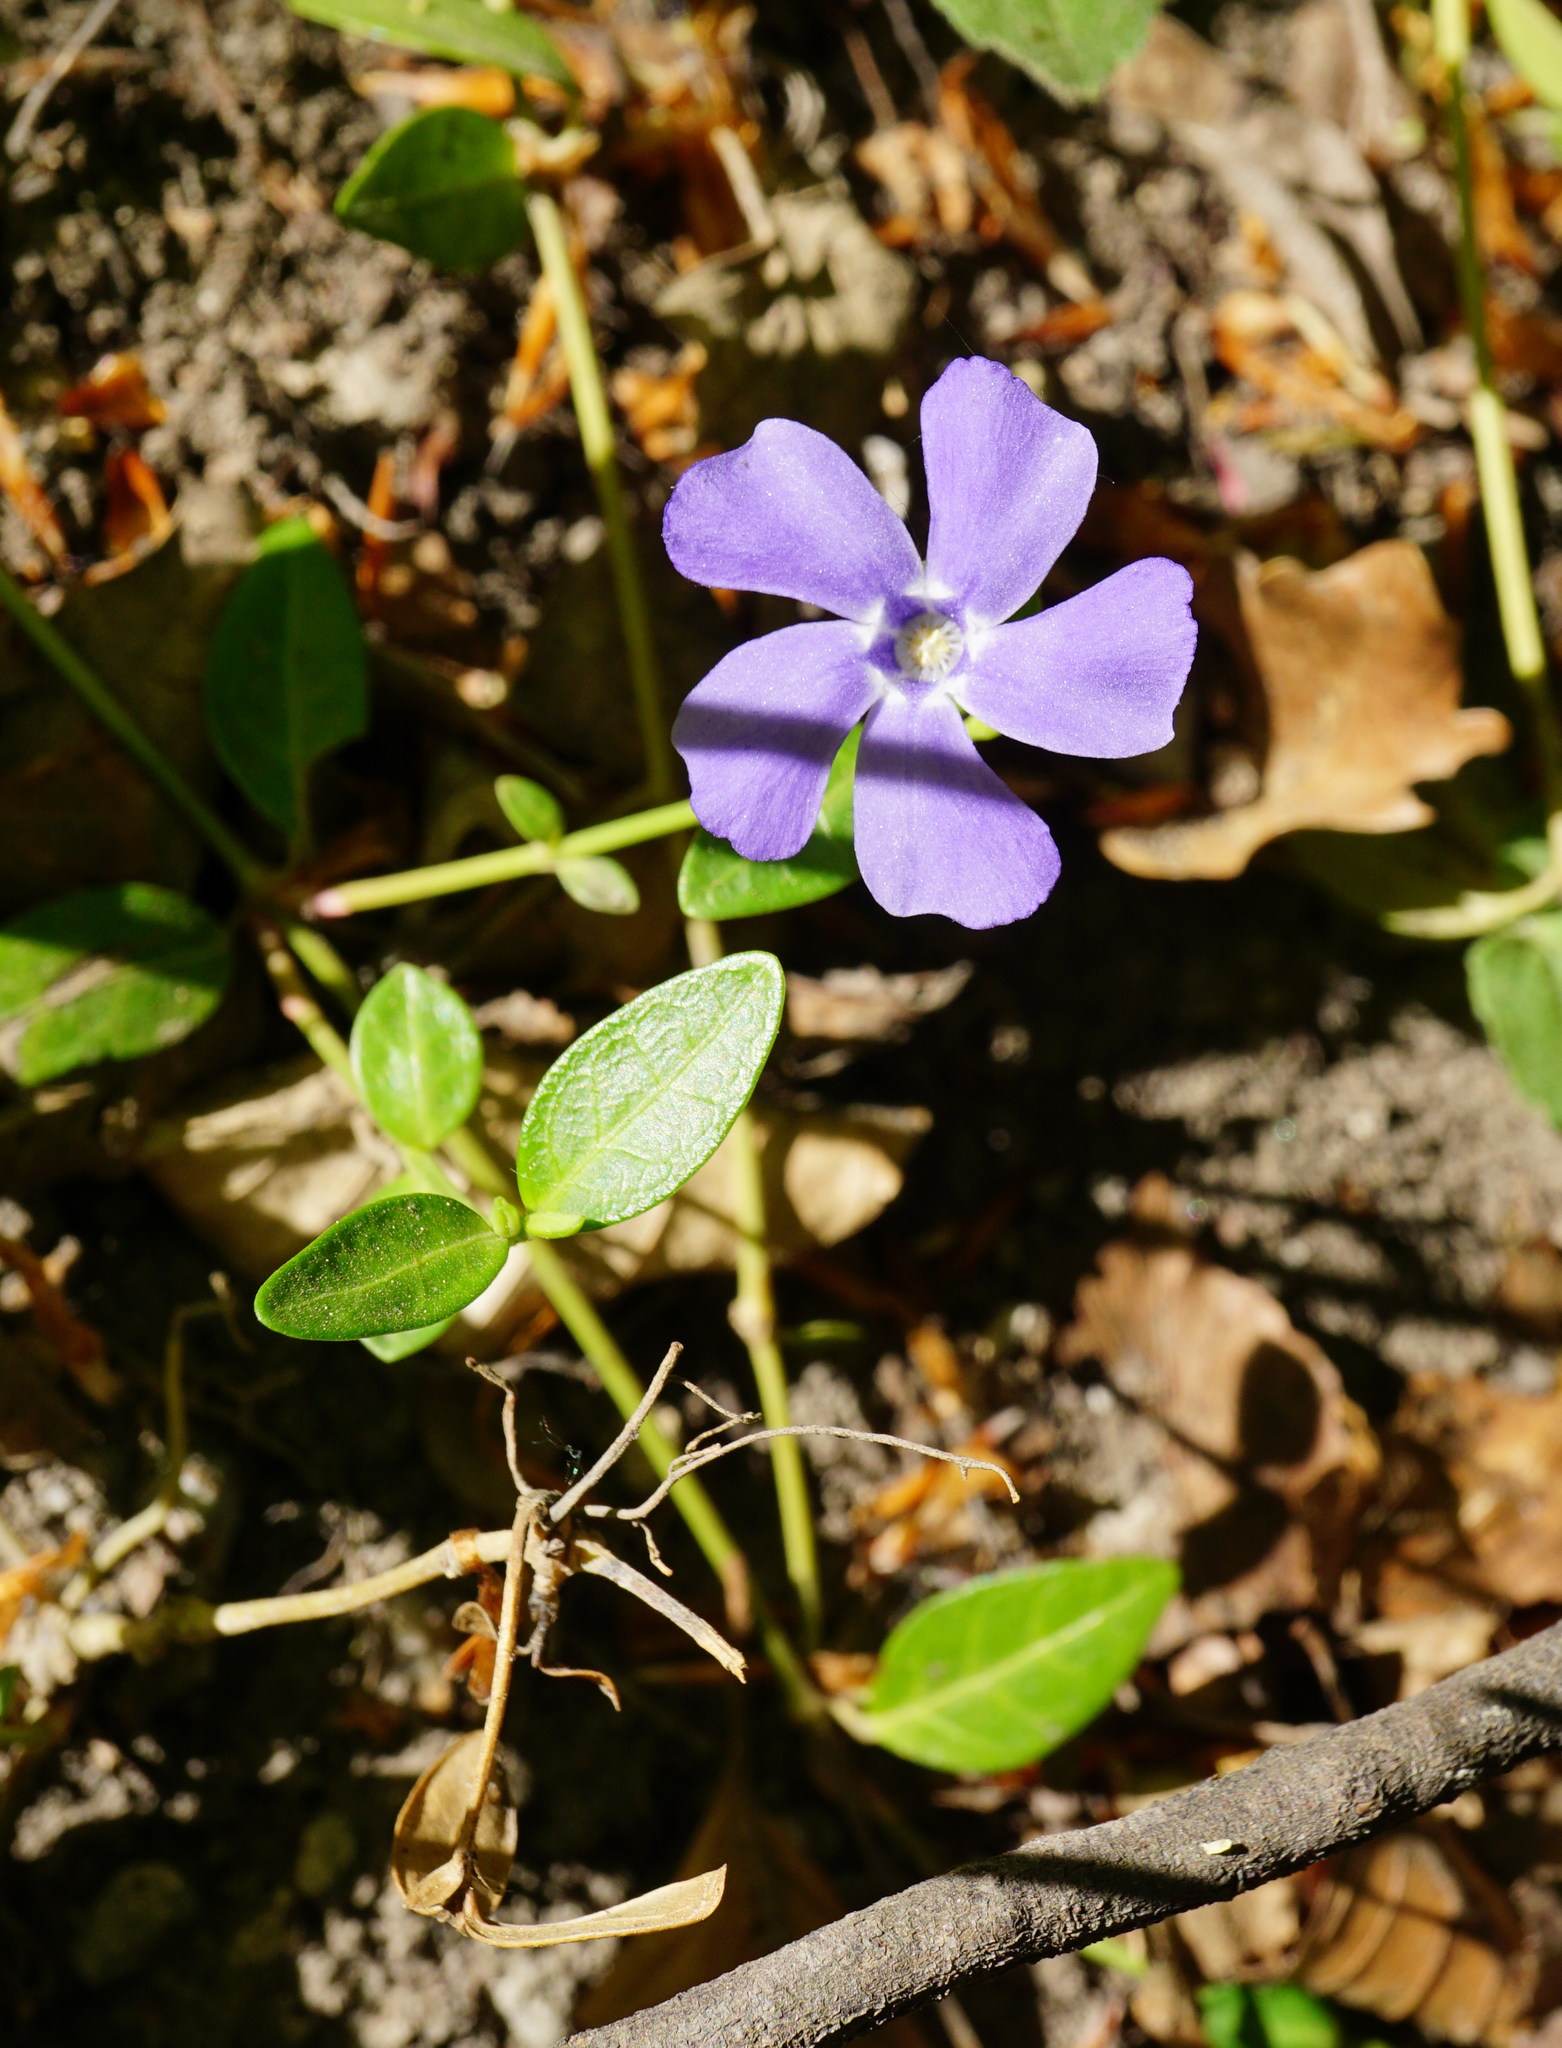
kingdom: Plantae
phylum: Tracheophyta
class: Magnoliopsida
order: Gentianales
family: Apocynaceae
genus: Vinca
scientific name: Vinca minor
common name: Lesser periwinkle
